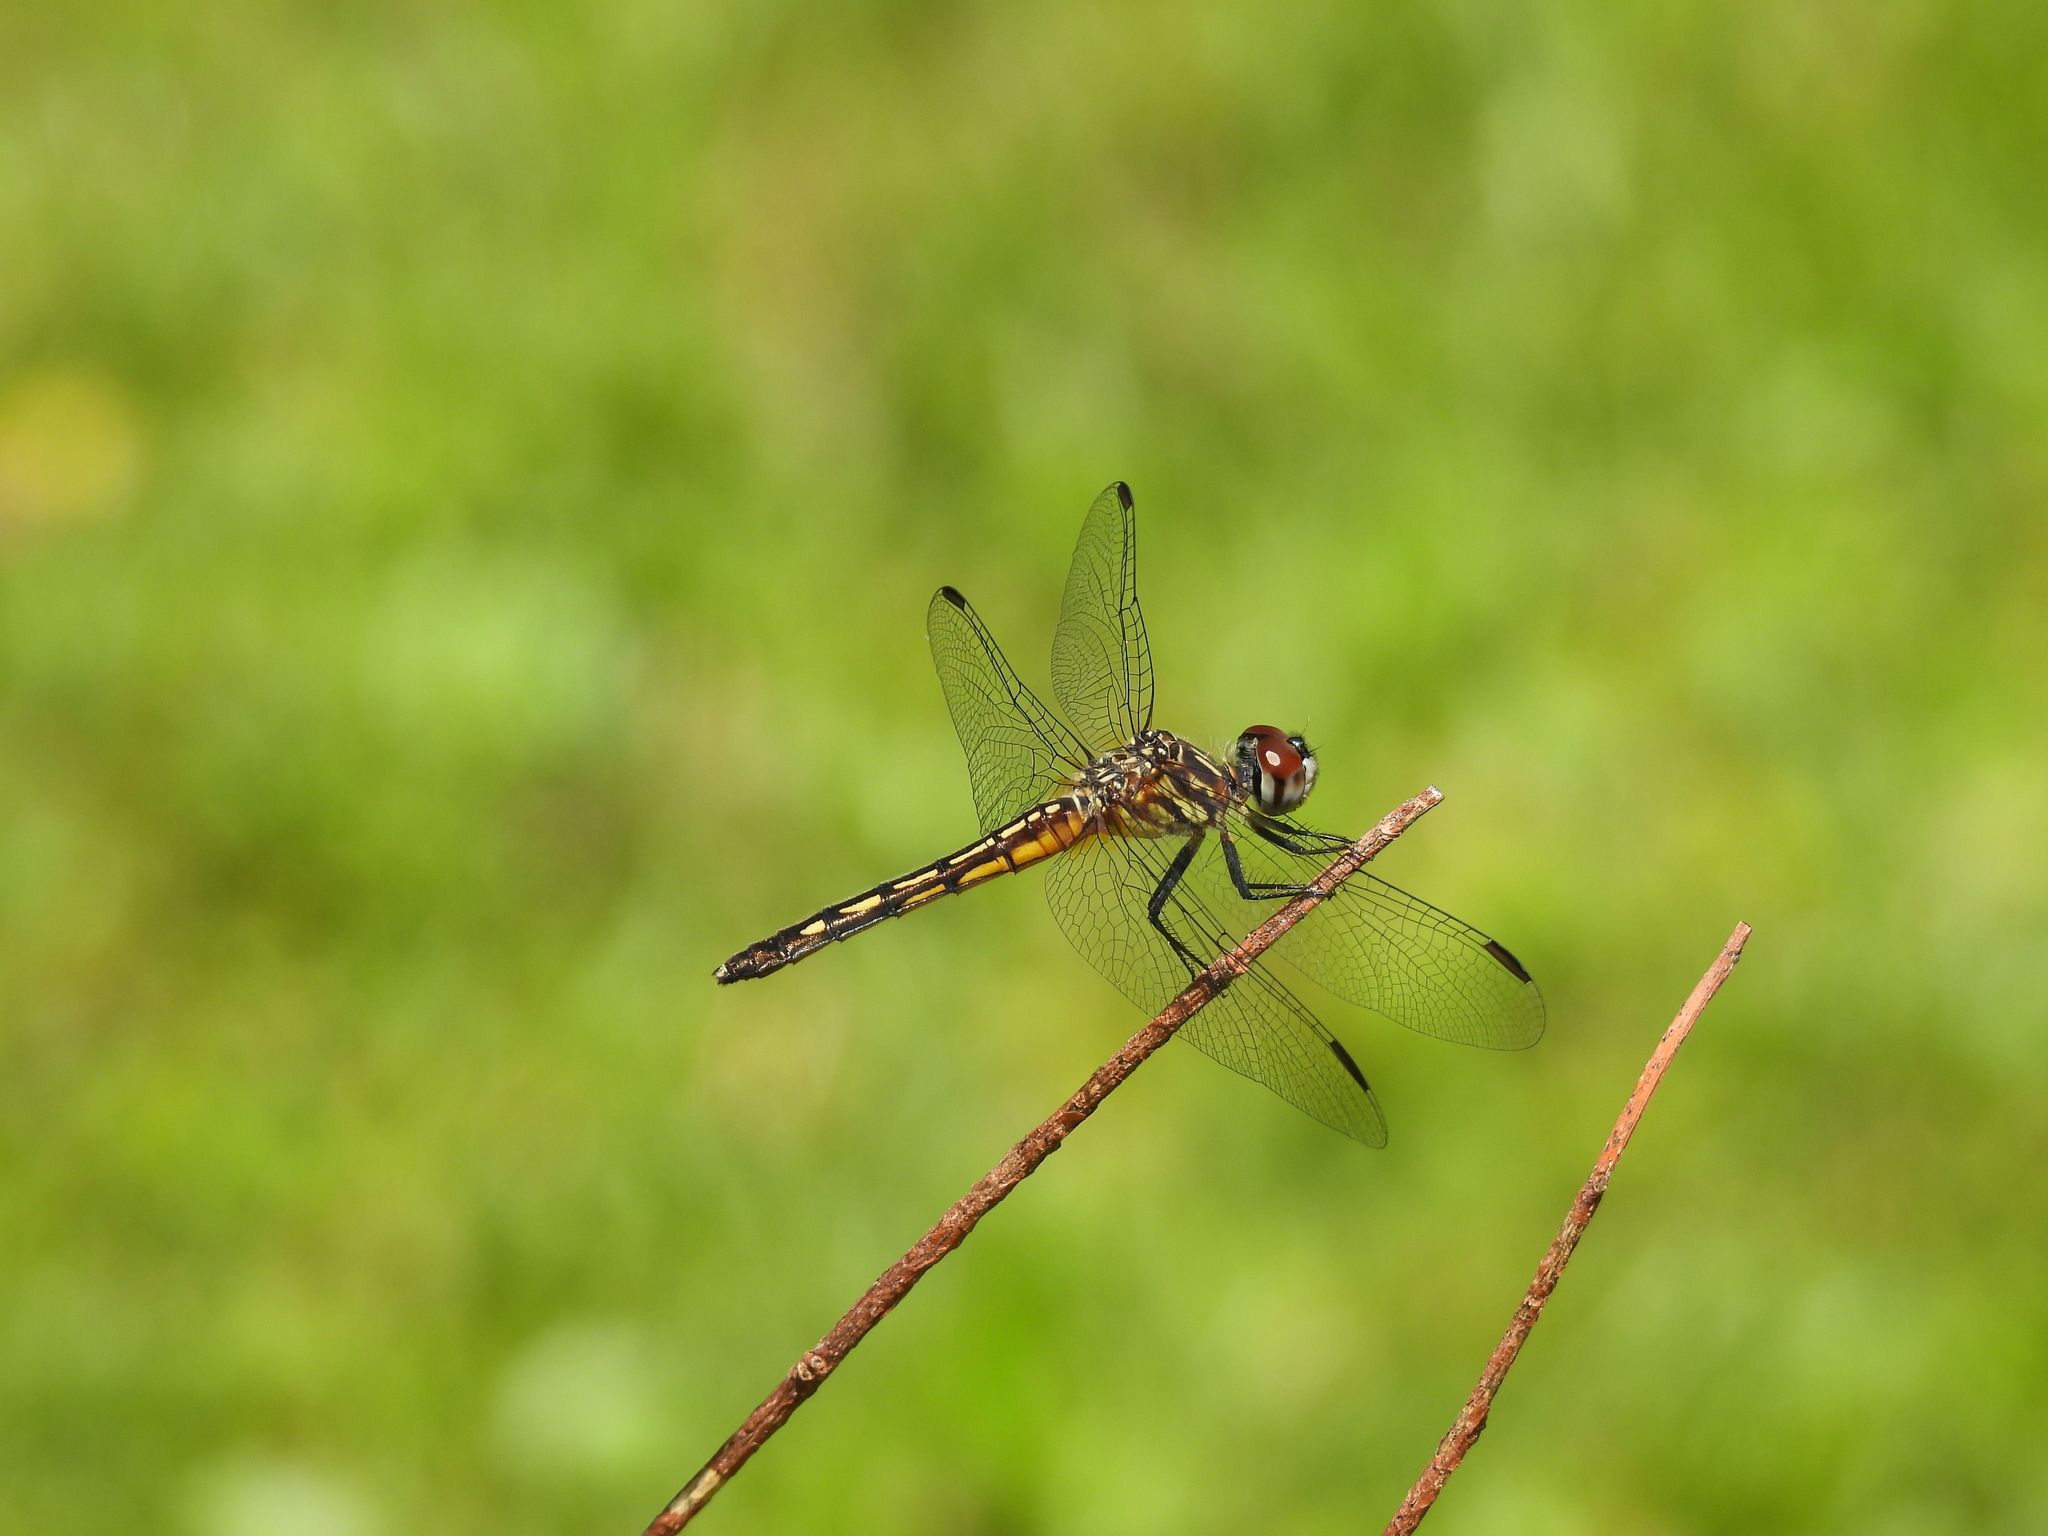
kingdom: Animalia
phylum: Arthropoda
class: Insecta
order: Odonata
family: Libellulidae
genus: Pachydiplax
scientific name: Pachydiplax longipennis
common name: Blue dasher
